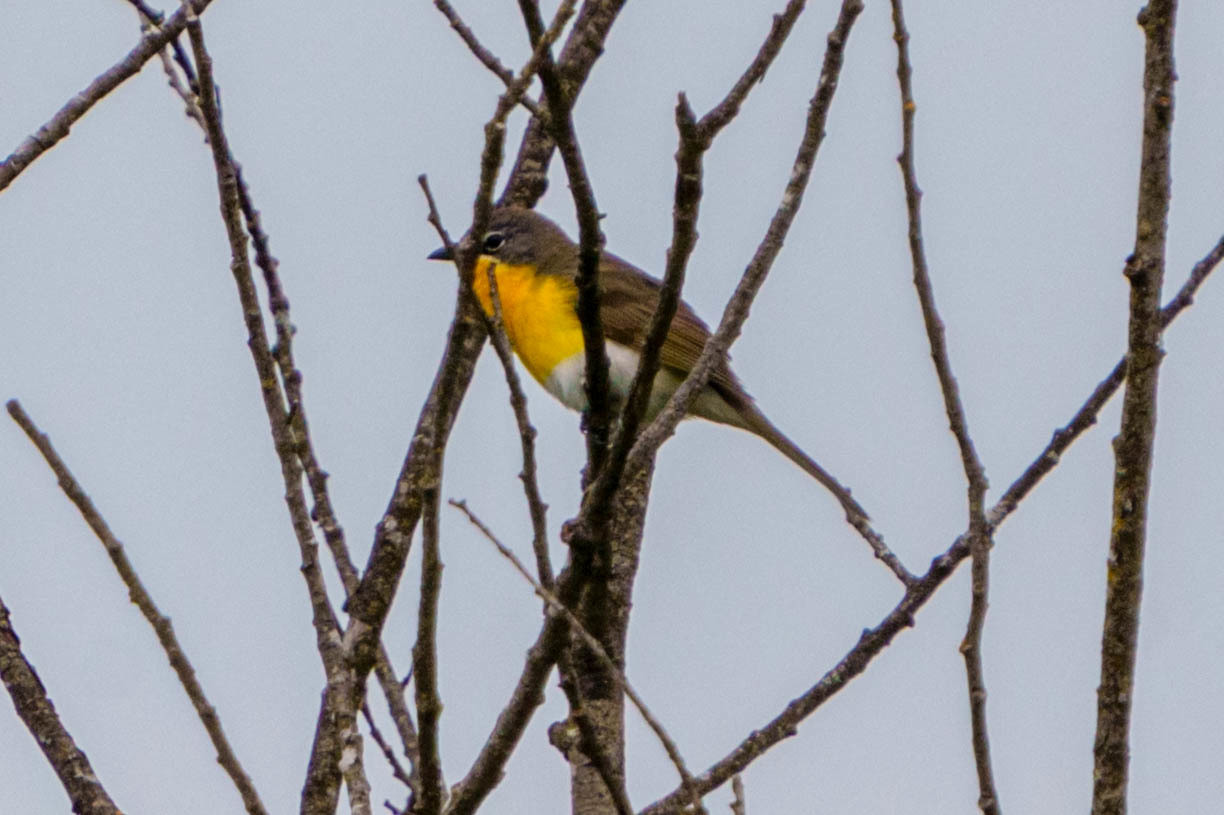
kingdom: Animalia
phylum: Chordata
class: Aves
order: Passeriformes
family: Parulidae
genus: Icteria
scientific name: Icteria virens
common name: Yellow-breasted chat
